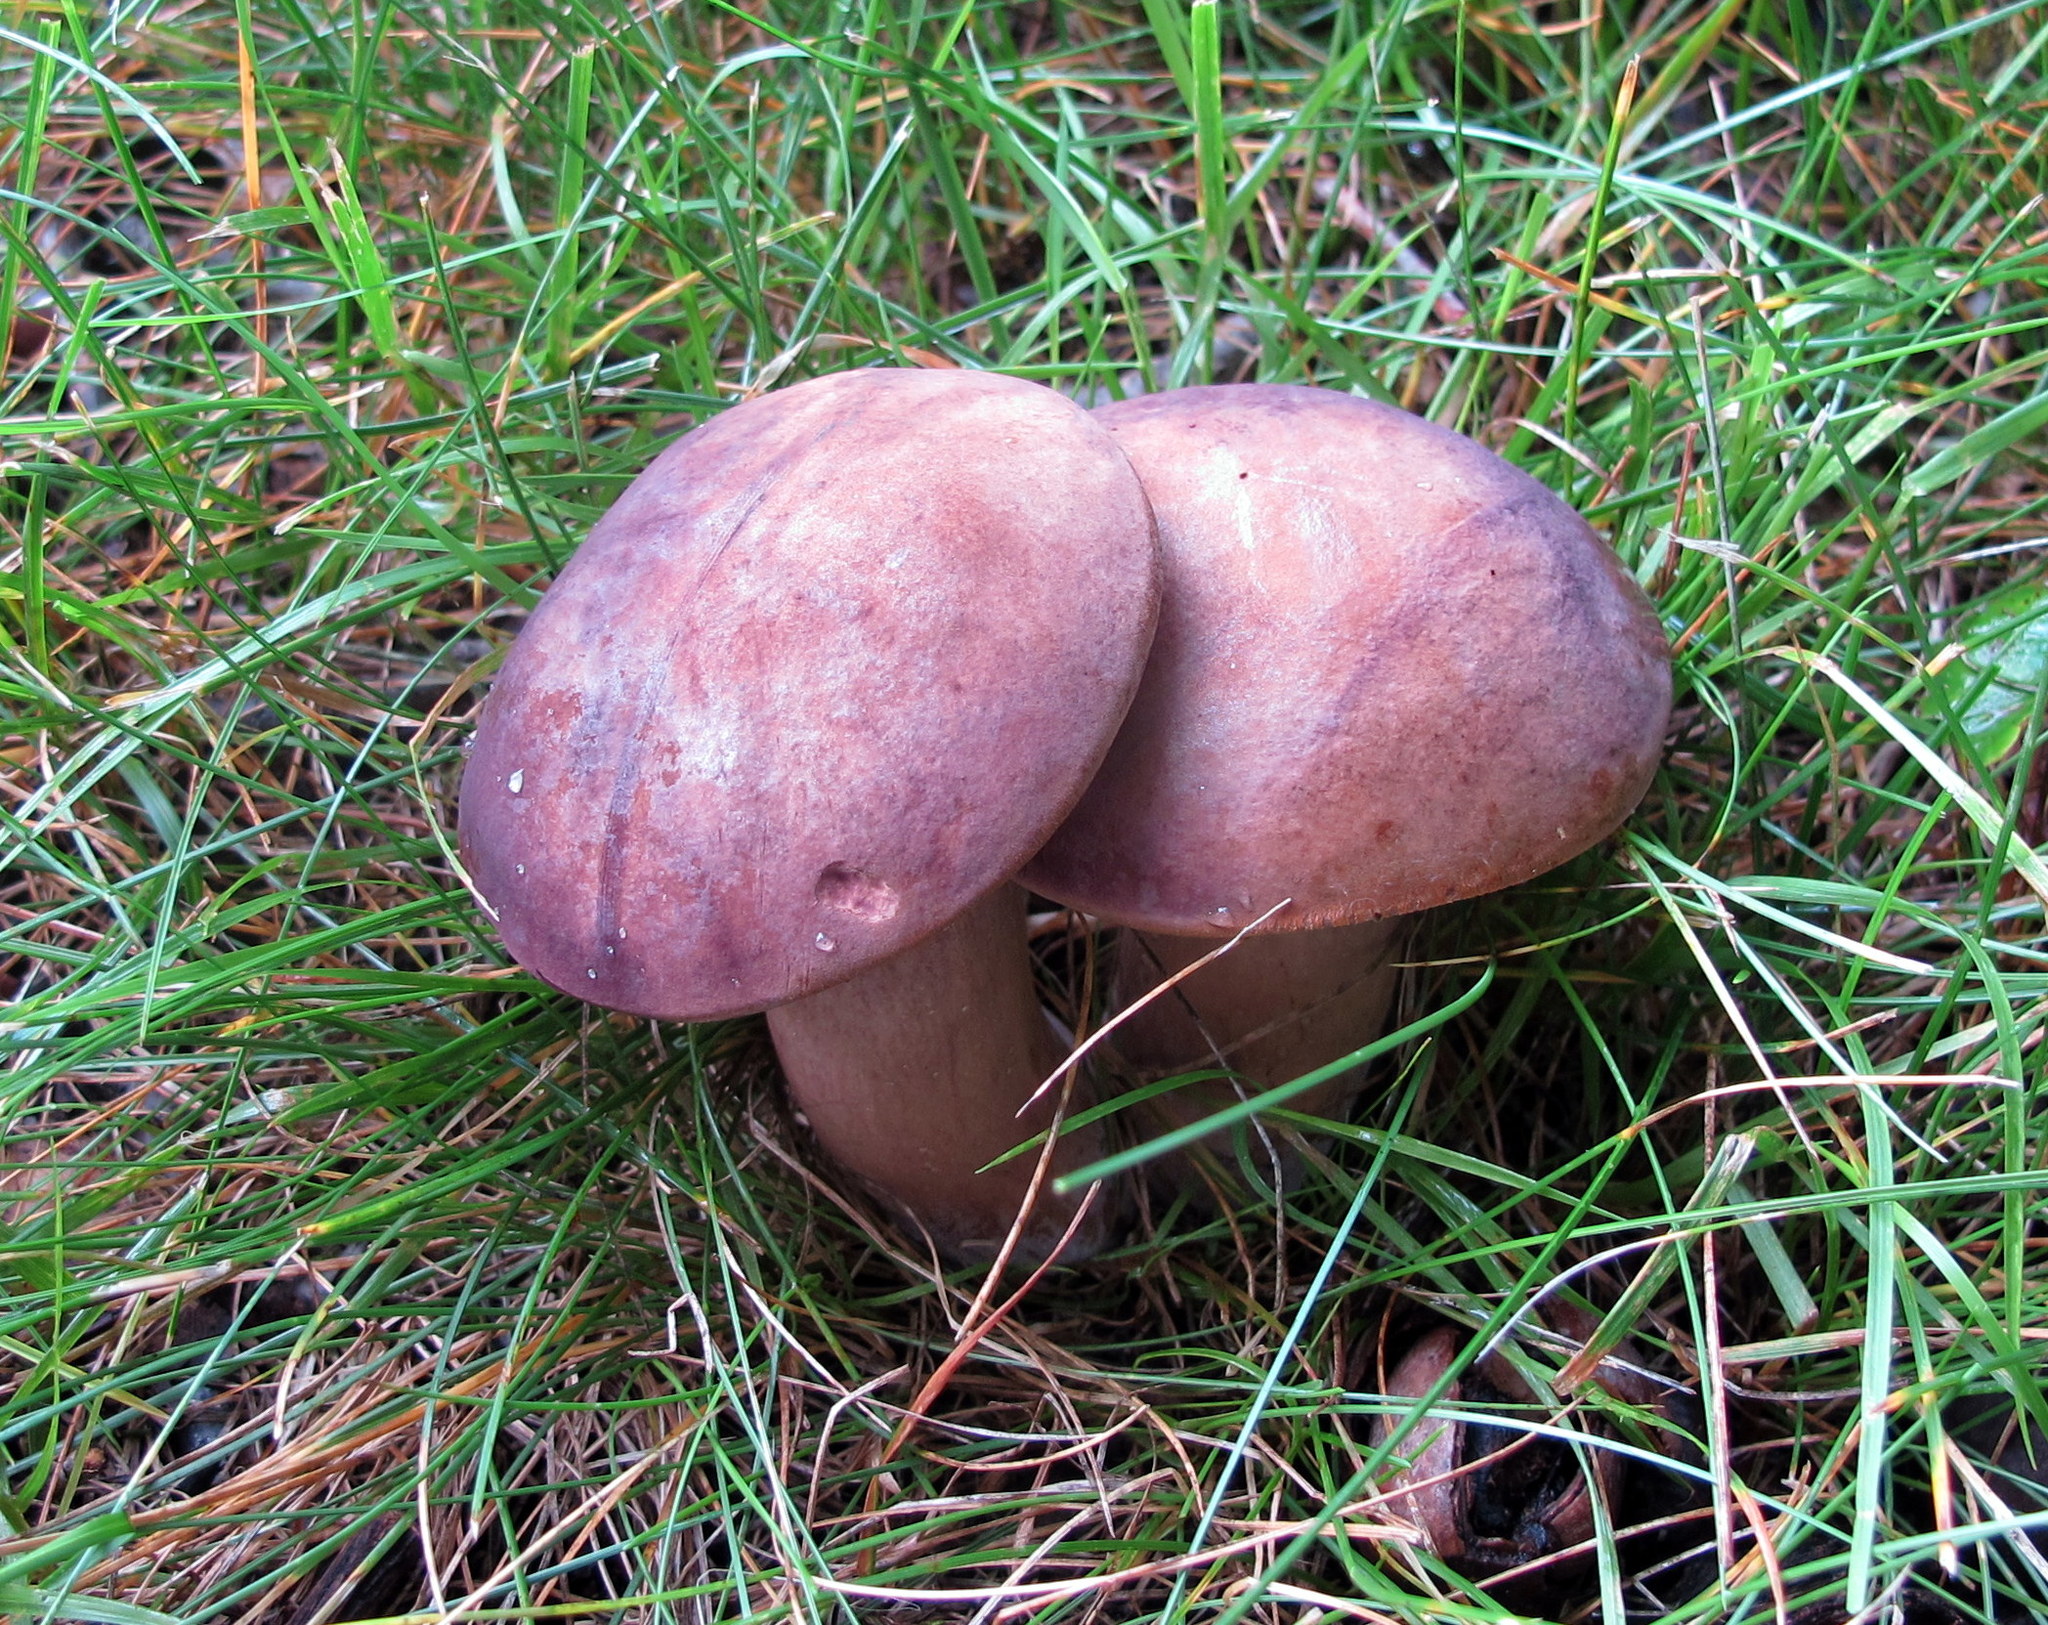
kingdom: Fungi
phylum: Basidiomycota
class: Agaricomycetes
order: Boletales
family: Boletaceae
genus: Tylopilus
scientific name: Tylopilus badiceps
